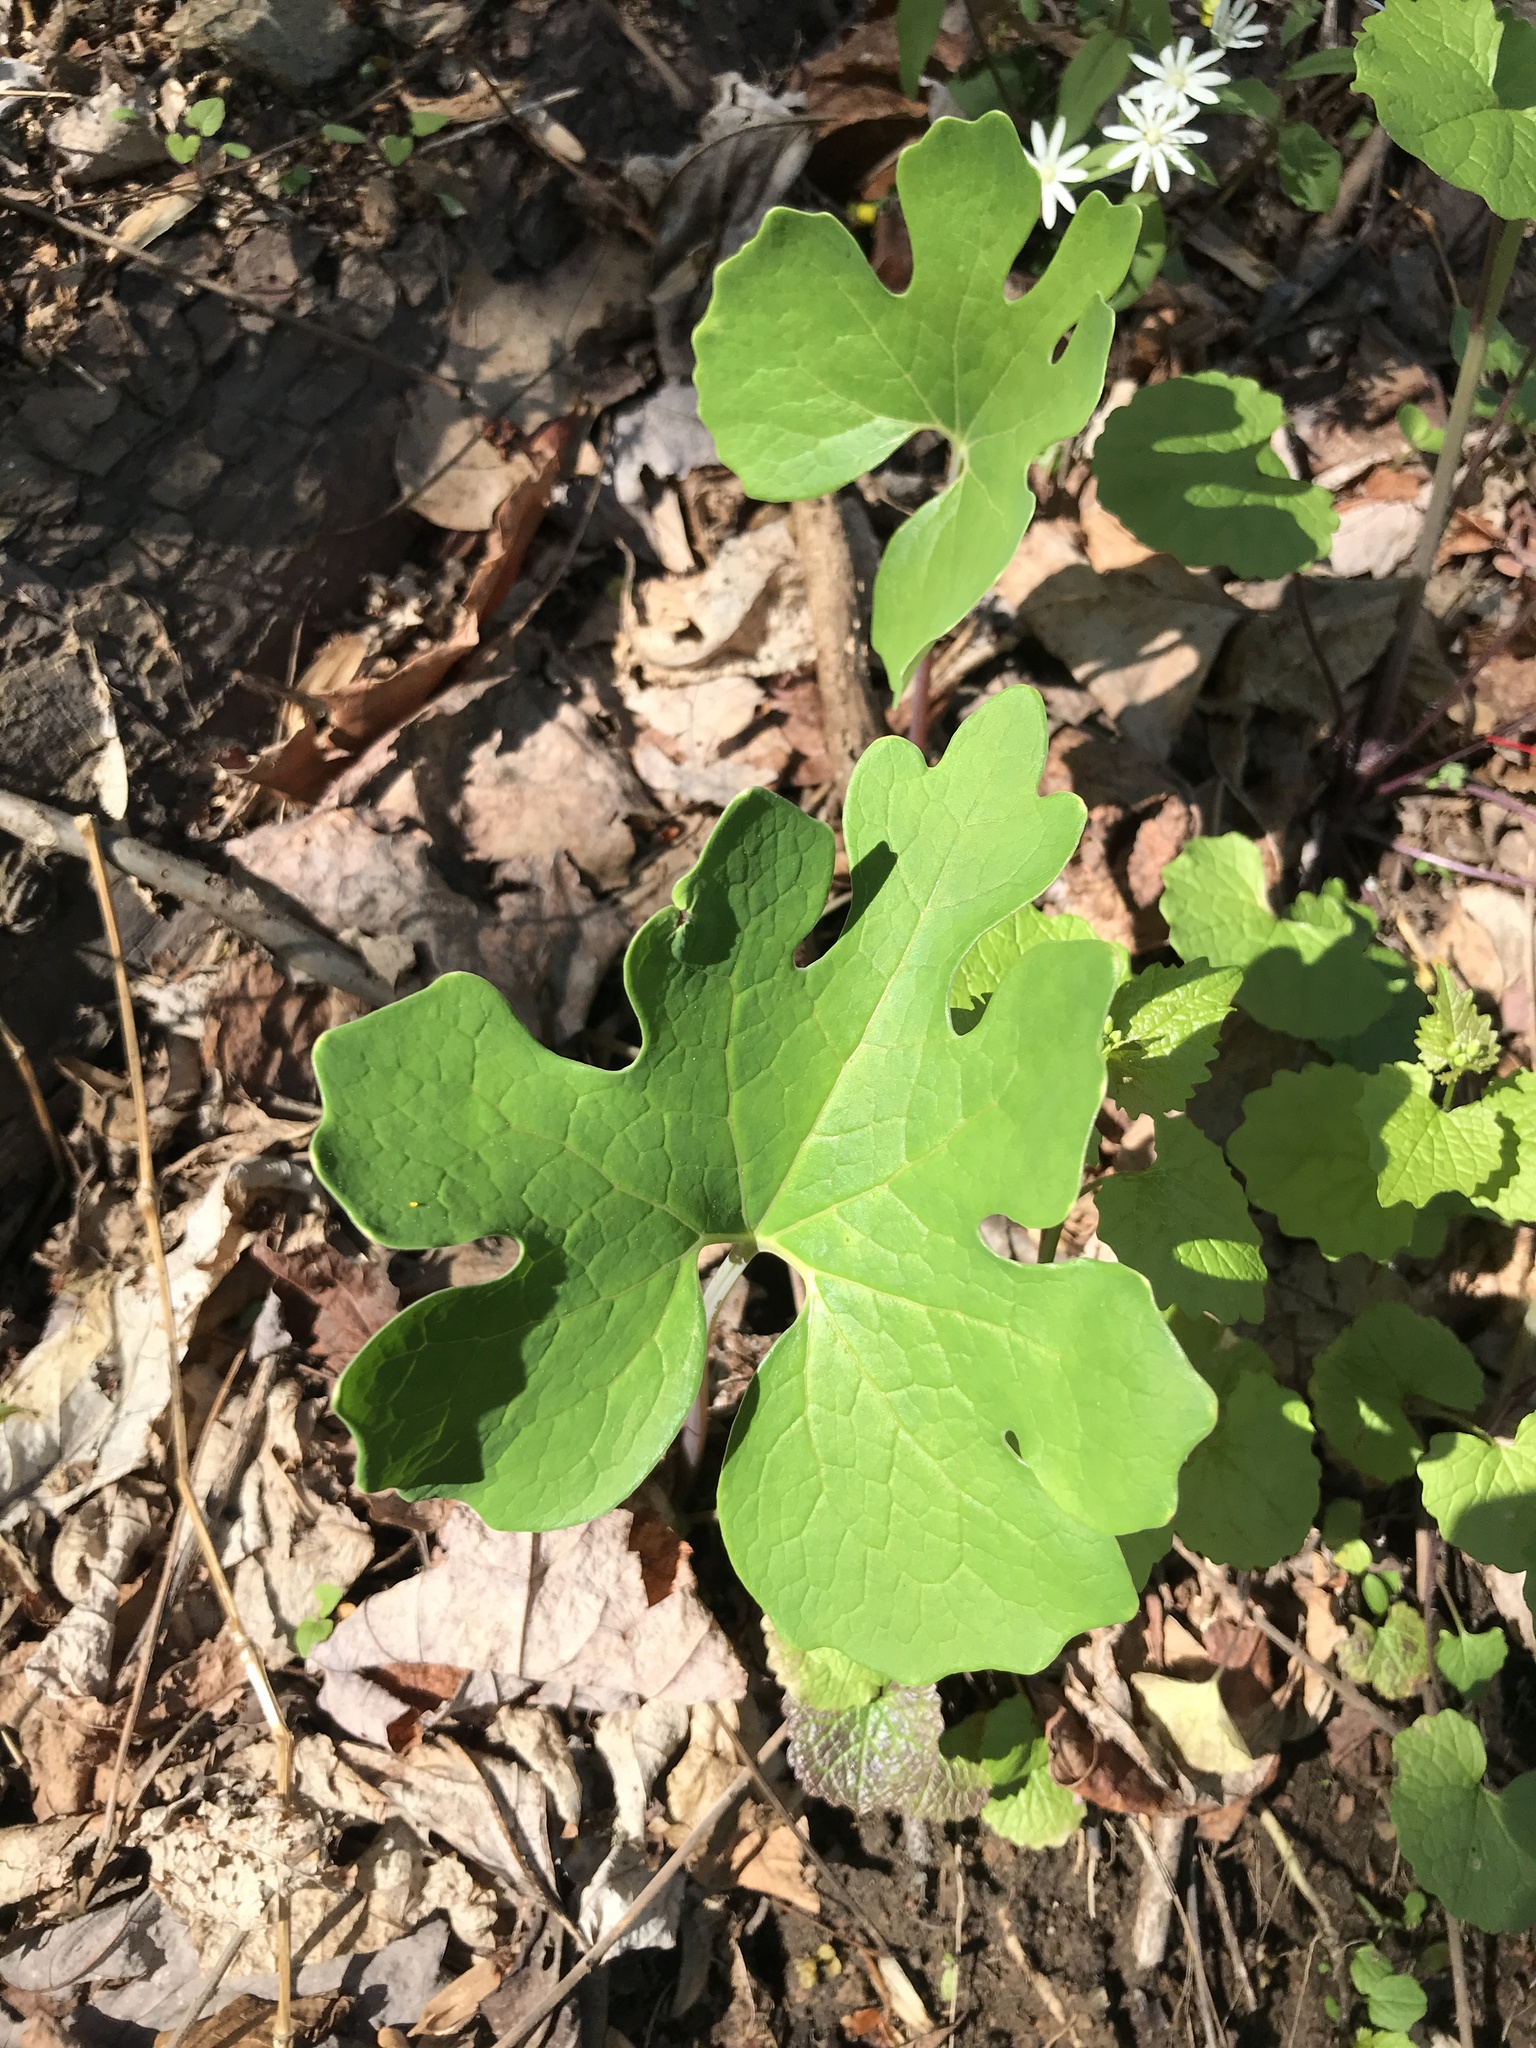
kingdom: Plantae
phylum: Tracheophyta
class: Magnoliopsida
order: Ranunculales
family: Papaveraceae
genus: Sanguinaria
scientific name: Sanguinaria canadensis
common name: Bloodroot
